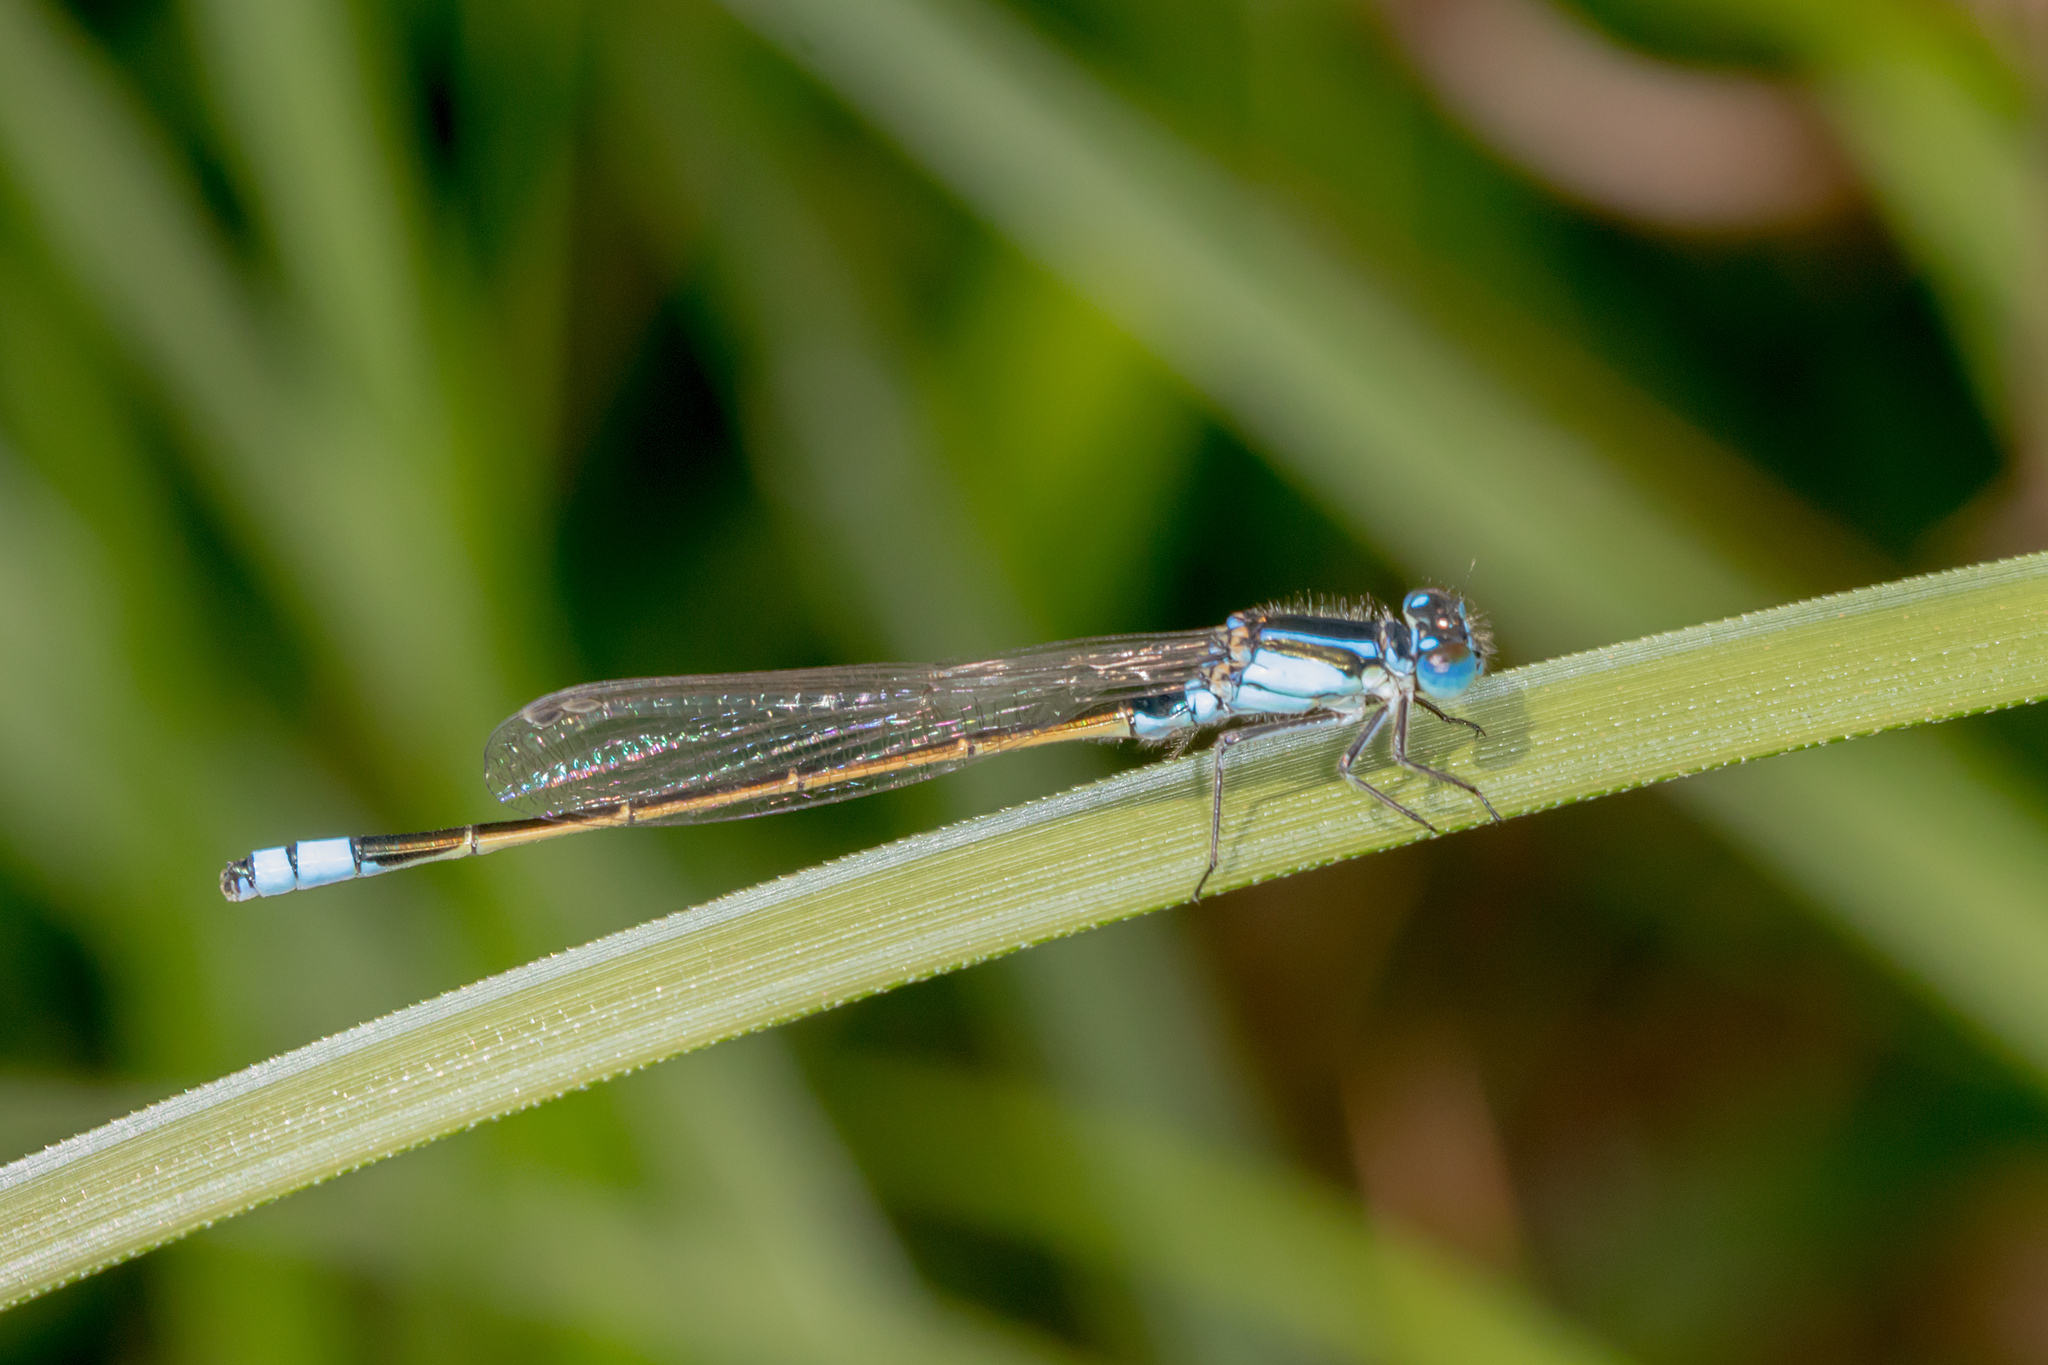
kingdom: Animalia
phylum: Arthropoda
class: Insecta
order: Odonata
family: Coenagrionidae
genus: Ischnura
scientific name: Ischnura heterosticta
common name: Common bluetail
